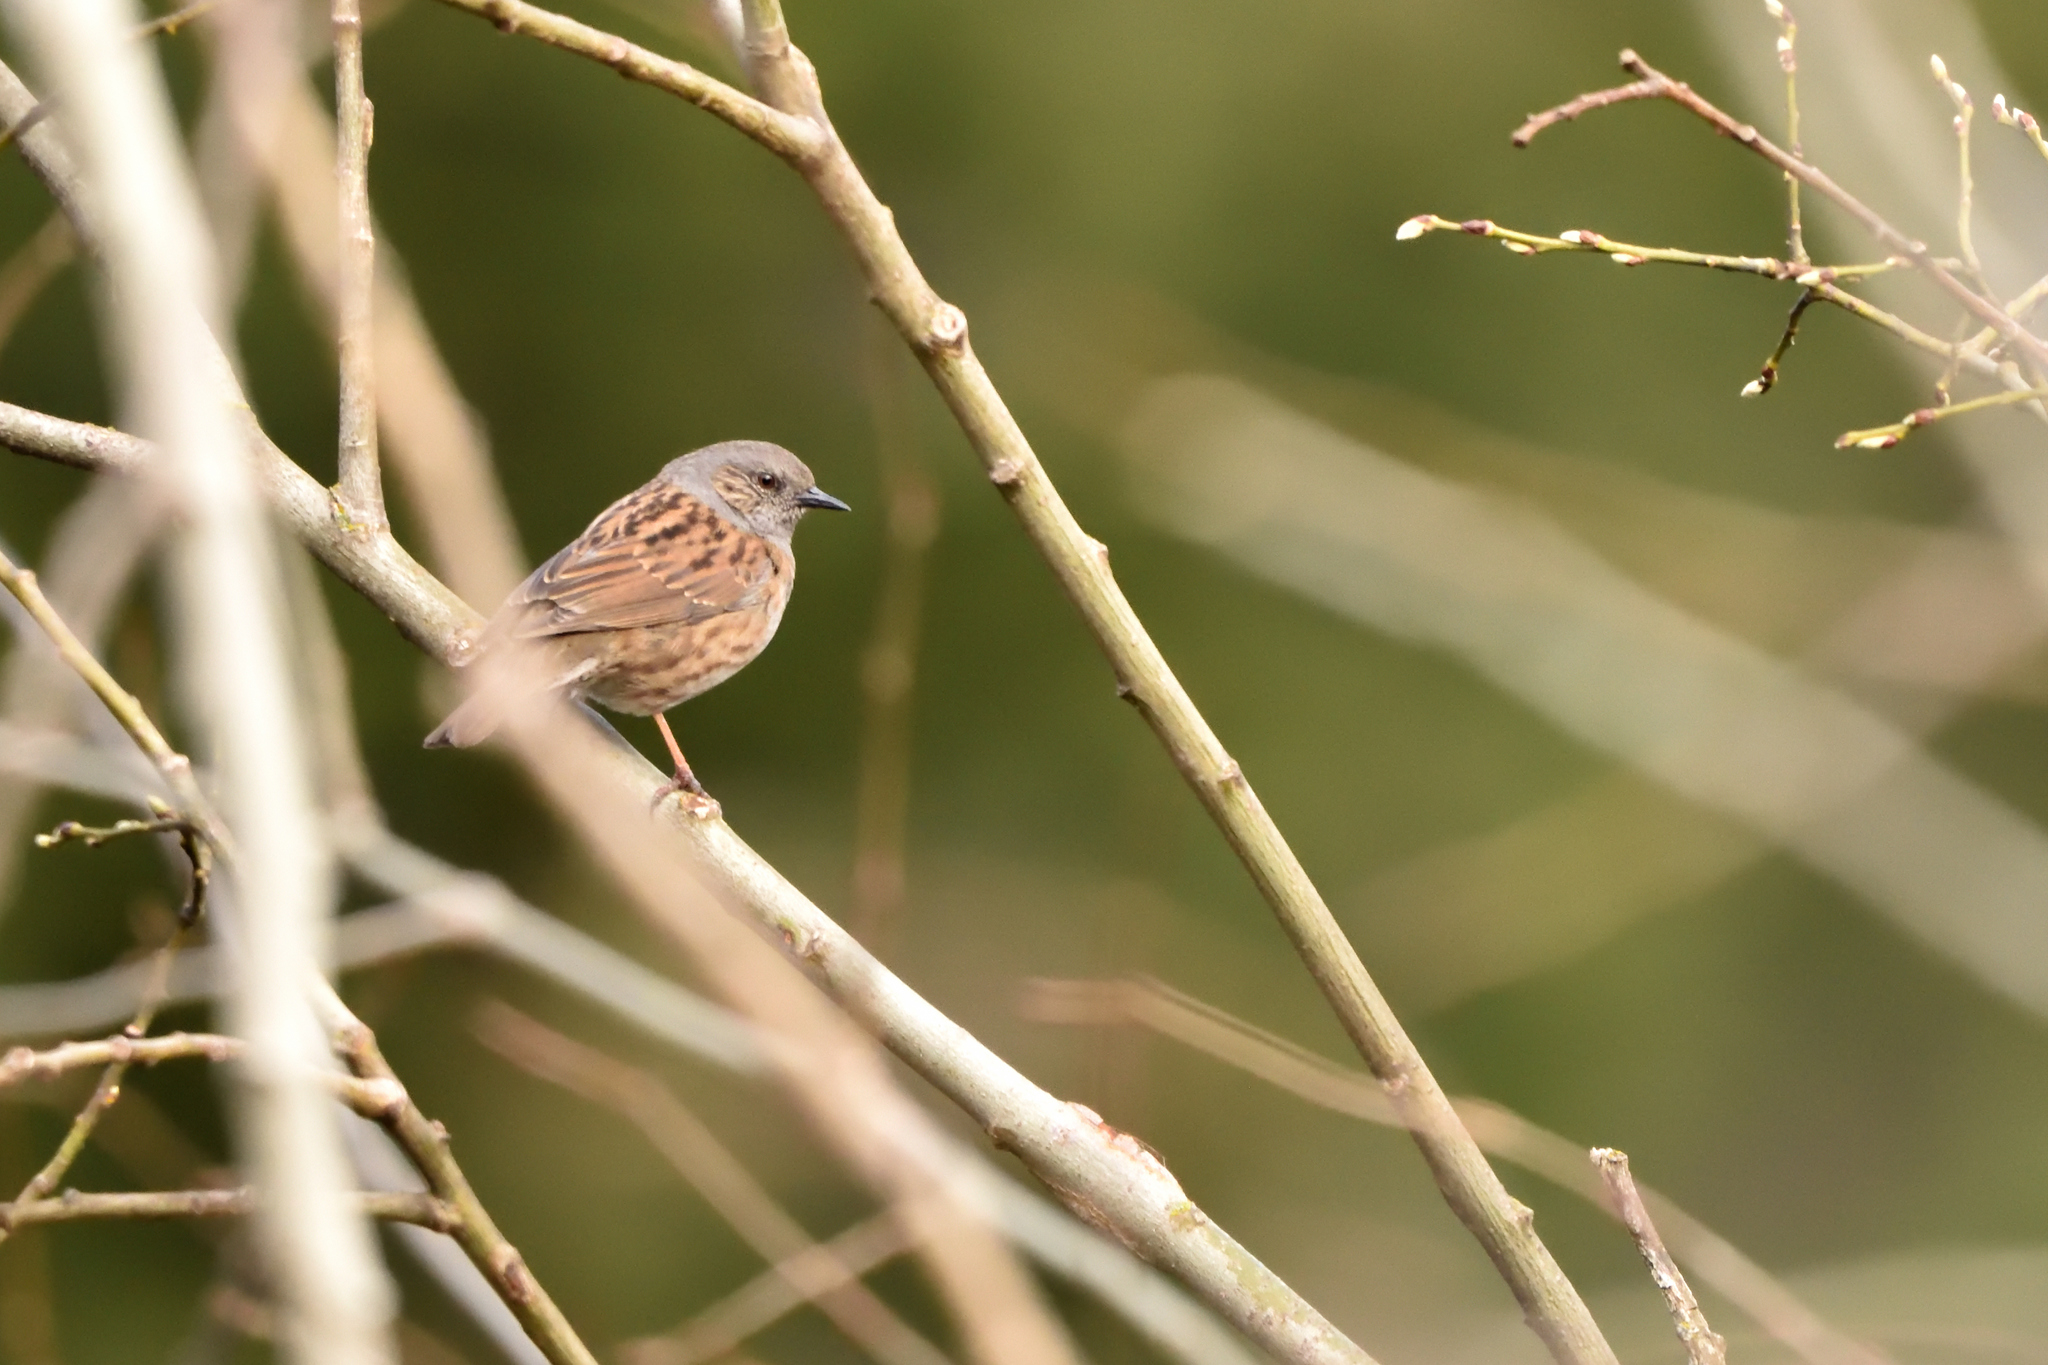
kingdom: Animalia
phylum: Chordata
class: Aves
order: Passeriformes
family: Prunellidae
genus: Prunella
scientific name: Prunella modularis
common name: Dunnock
